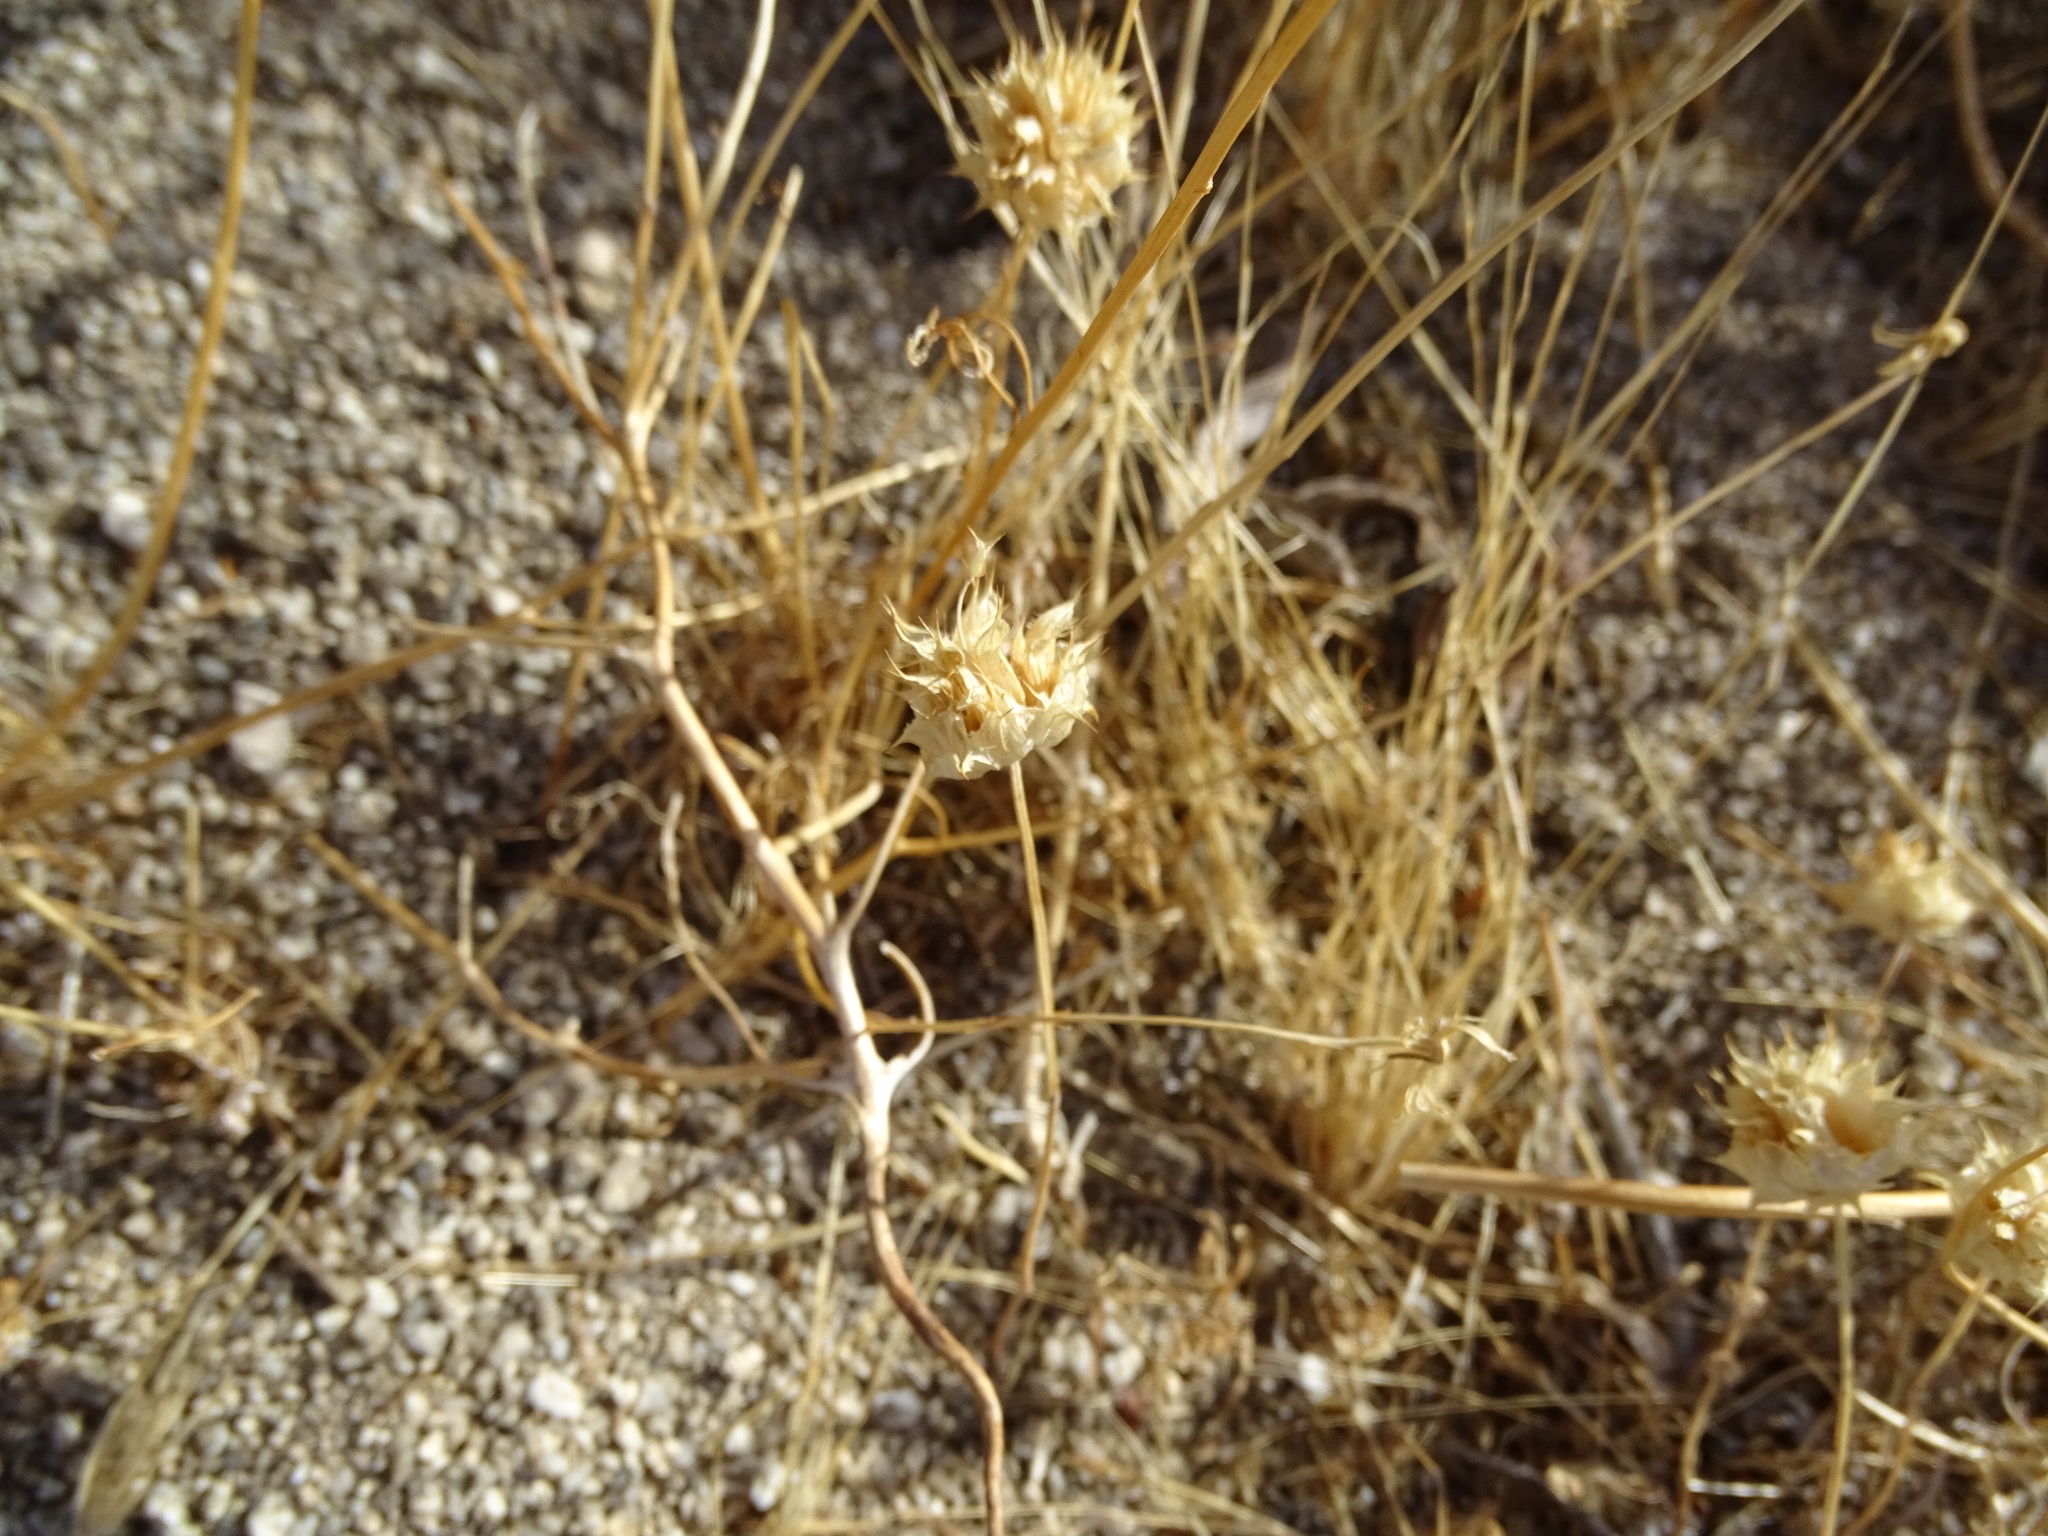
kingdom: Plantae
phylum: Tracheophyta
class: Magnoliopsida
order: Lamiales
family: Lamiaceae
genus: Salvia
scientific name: Salvia columbariae
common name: Chia
